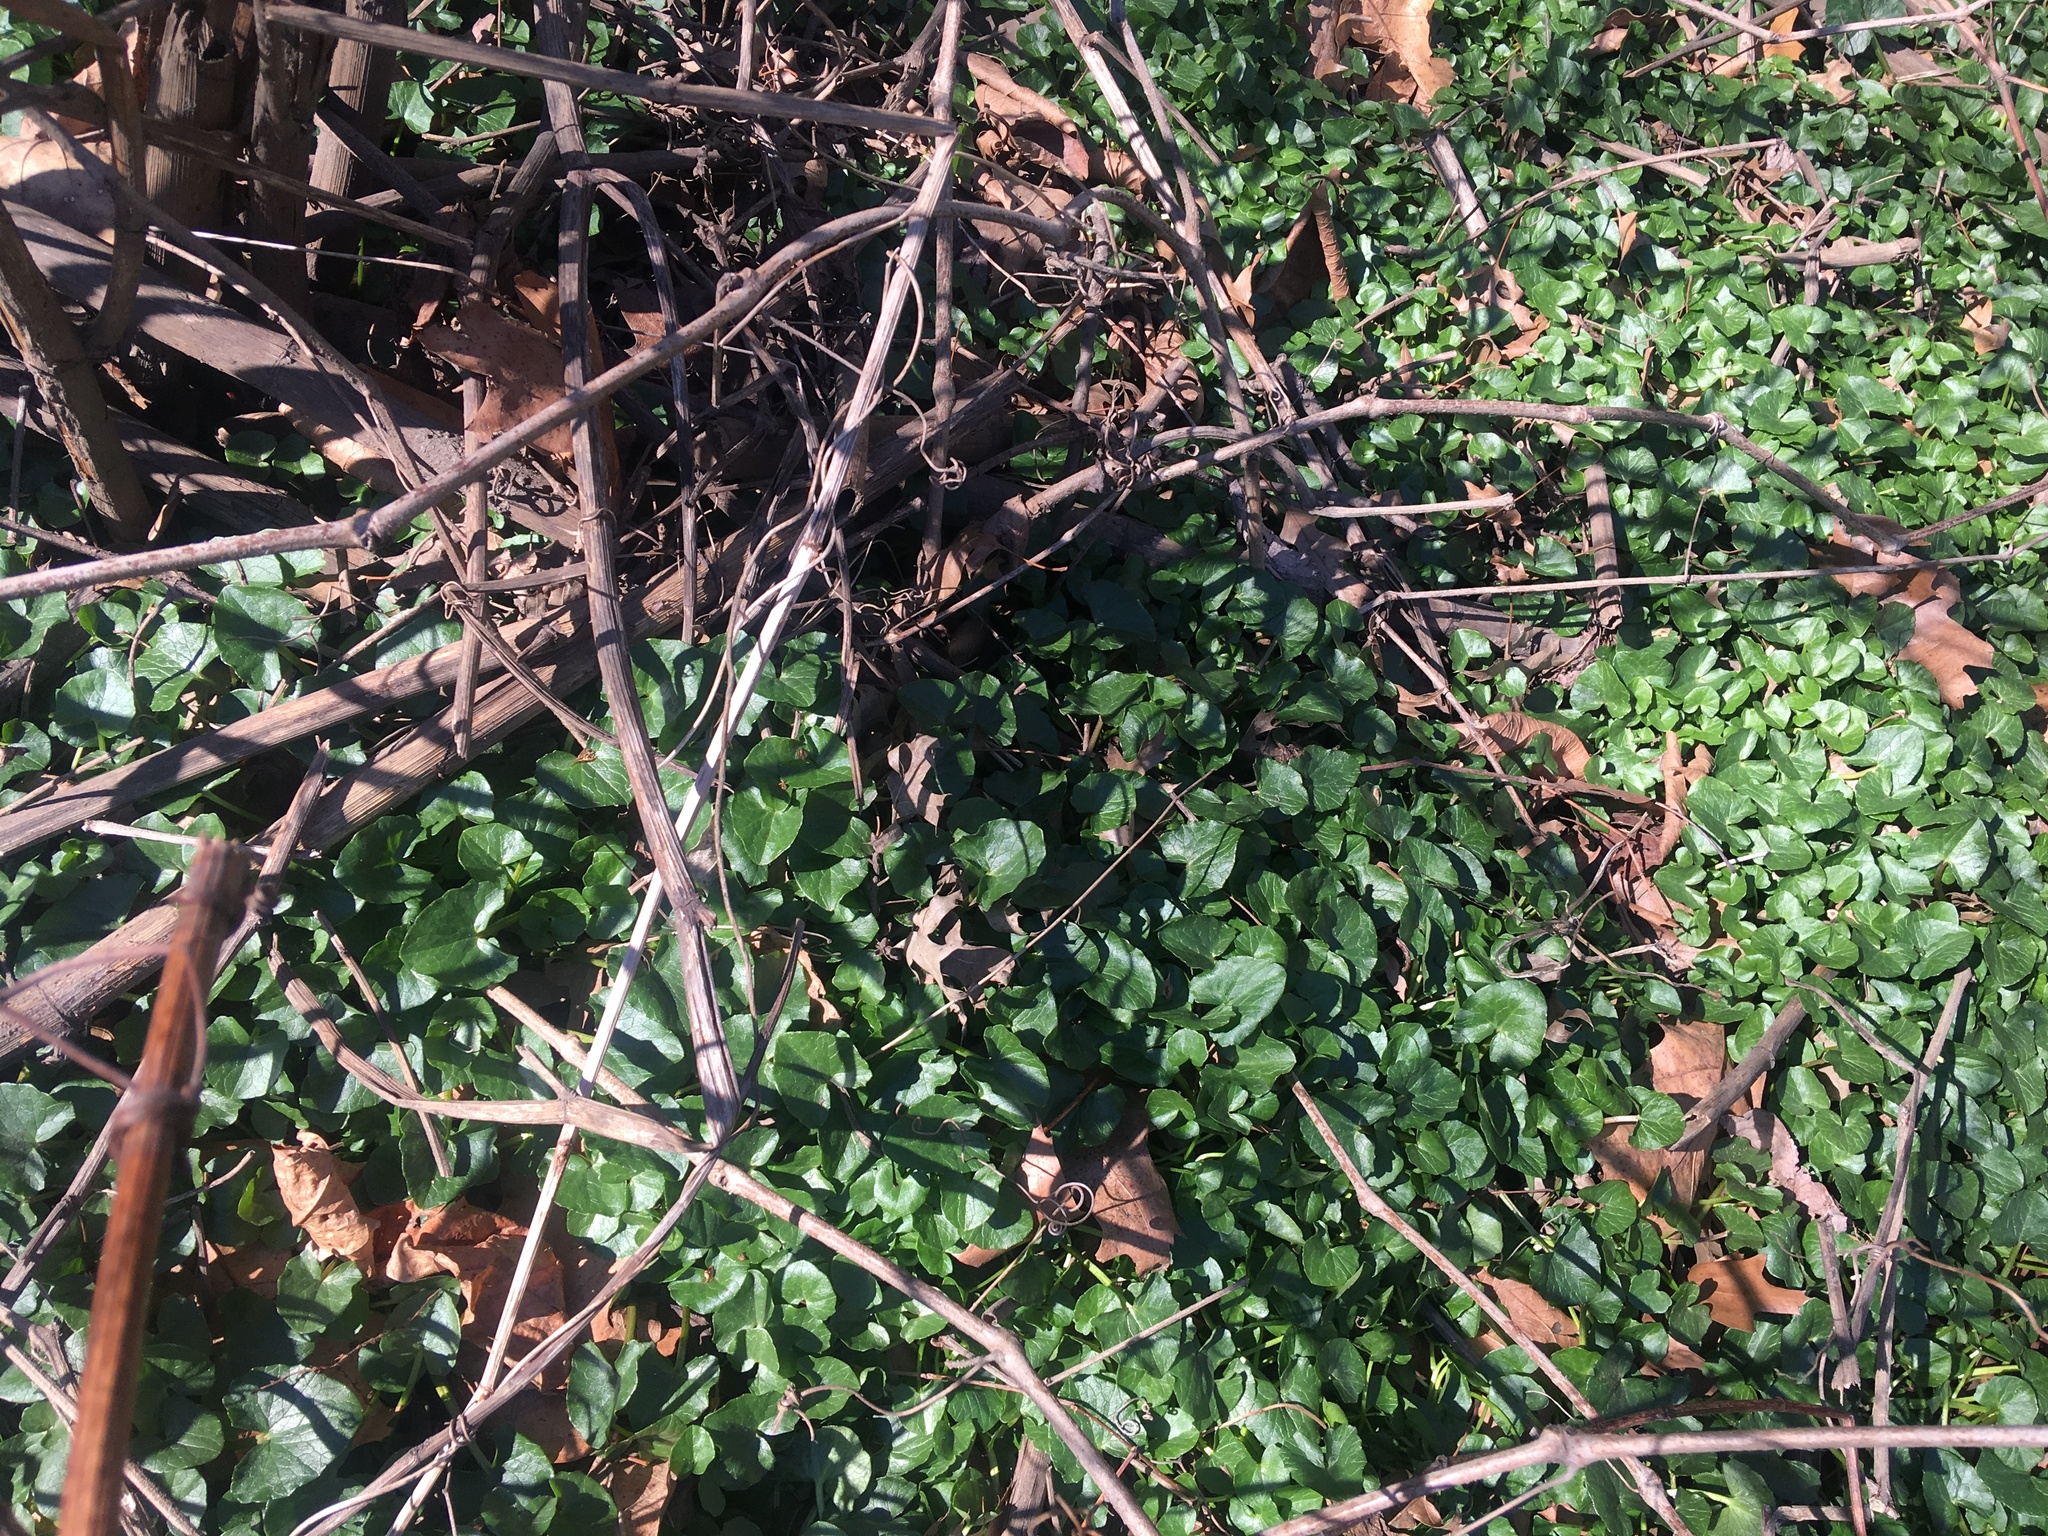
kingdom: Plantae
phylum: Tracheophyta
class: Magnoliopsida
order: Ranunculales
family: Ranunculaceae
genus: Ficaria
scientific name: Ficaria verna
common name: Lesser celandine
